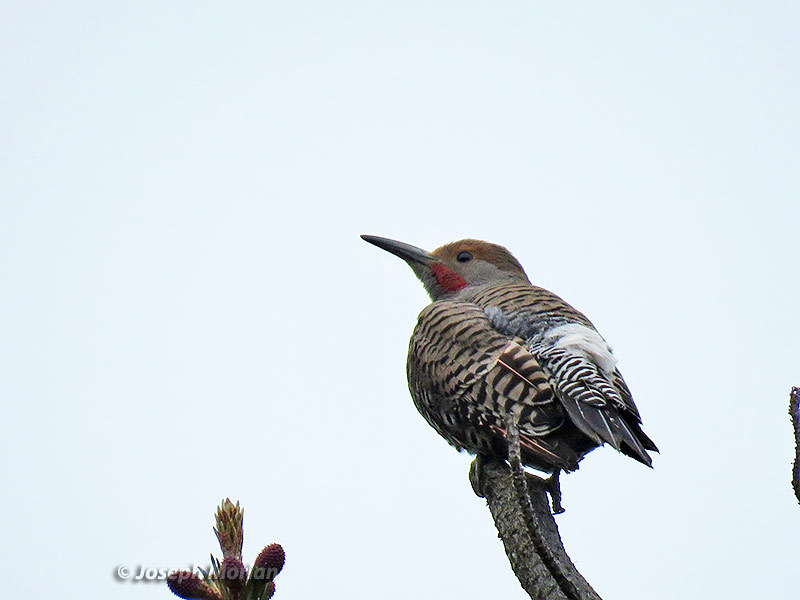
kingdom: Animalia
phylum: Chordata
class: Aves
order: Piciformes
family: Picidae
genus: Colaptes
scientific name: Colaptes auratus
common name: Northern flicker
